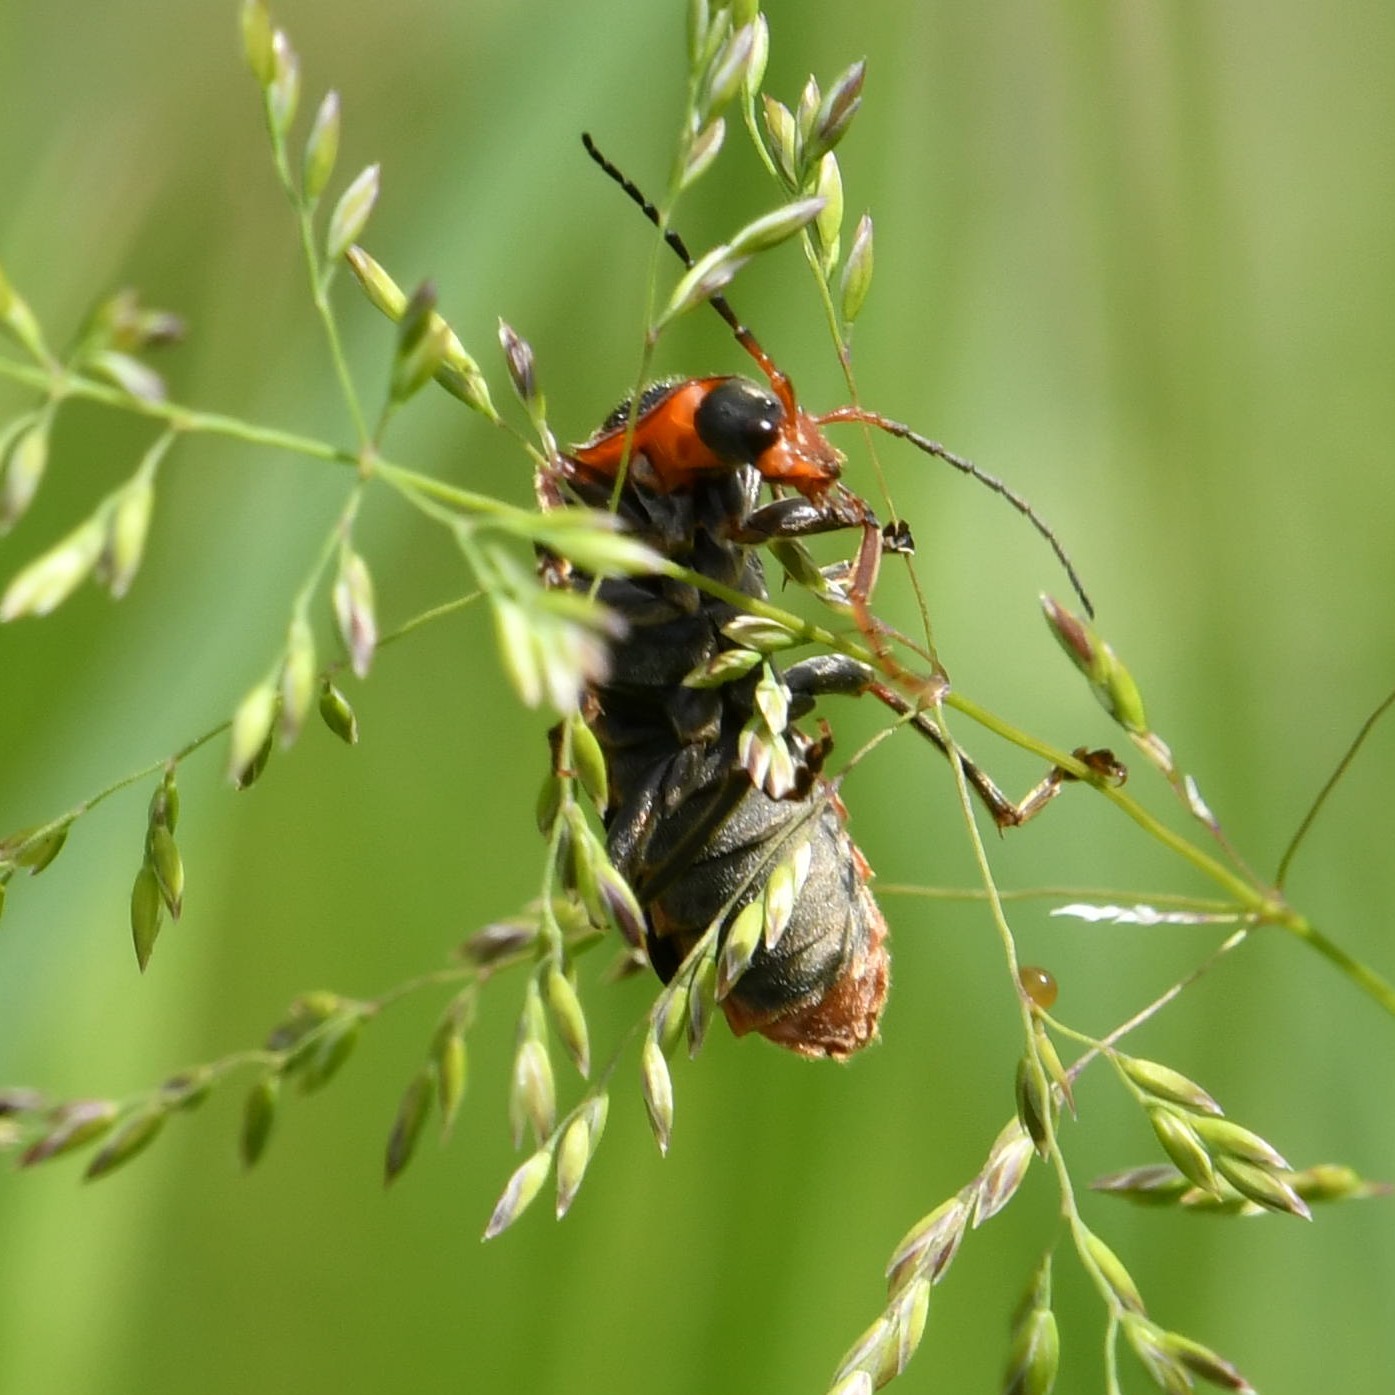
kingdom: Animalia
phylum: Arthropoda
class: Insecta
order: Coleoptera
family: Cantharidae
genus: Cantharis
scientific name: Cantharis rustica
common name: Soldier beetle
